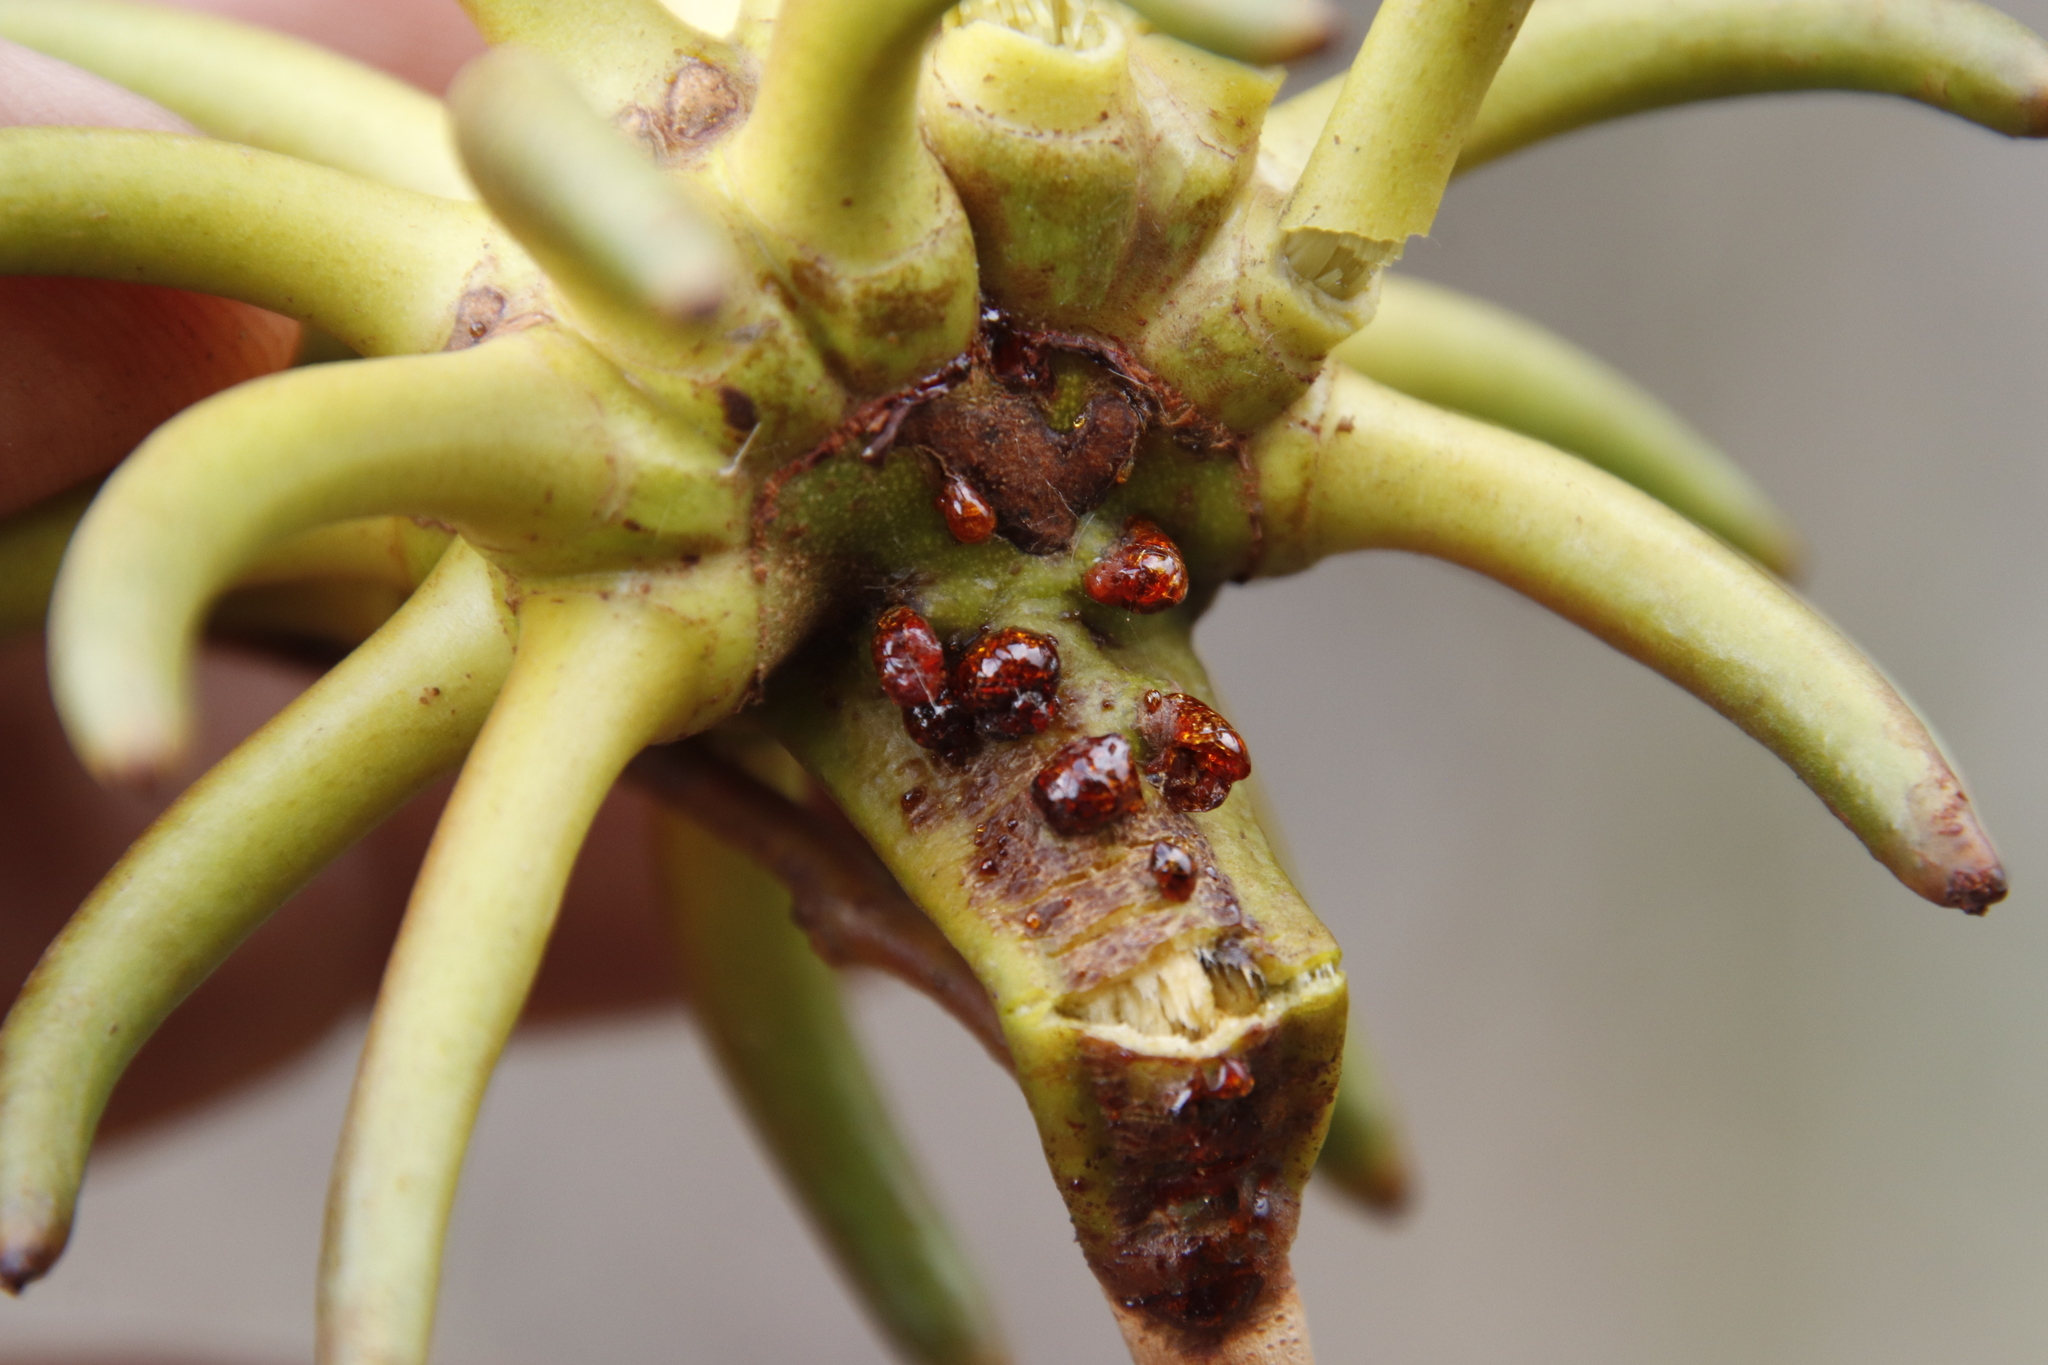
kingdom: Plantae
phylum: Tracheophyta
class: Magnoliopsida
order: Myrtales
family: Myrtaceae
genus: Eucalyptus
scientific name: Eucalyptus conferruminata
